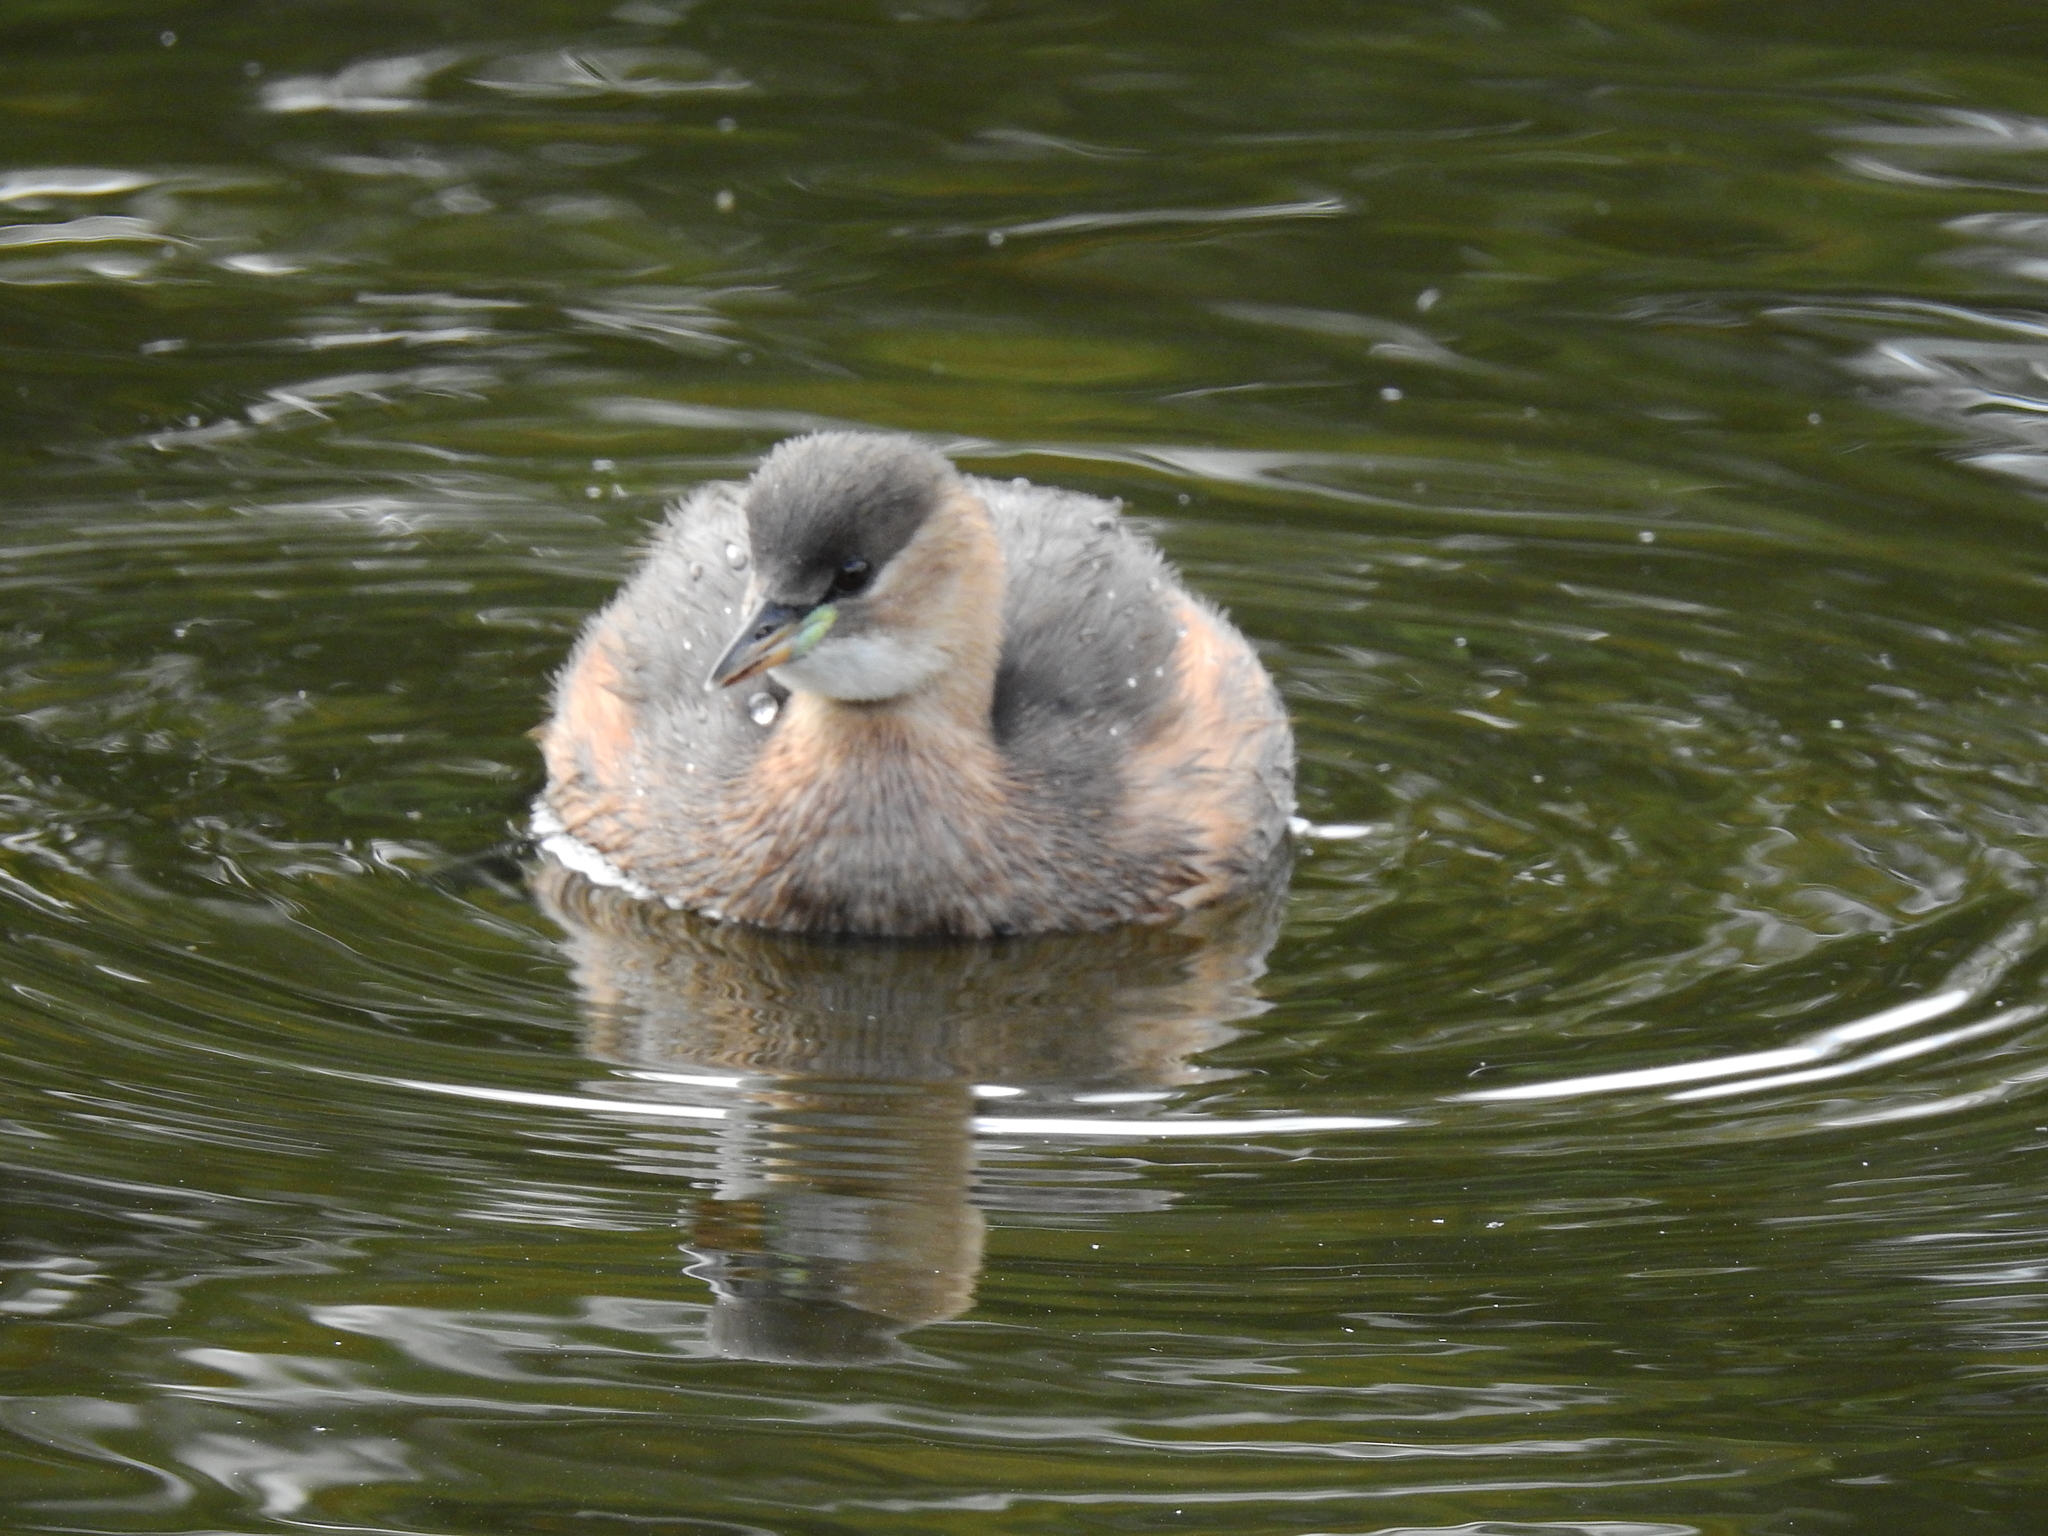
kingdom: Animalia
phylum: Chordata
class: Aves
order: Podicipediformes
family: Podicipedidae
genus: Tachybaptus
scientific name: Tachybaptus ruficollis
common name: Little grebe
